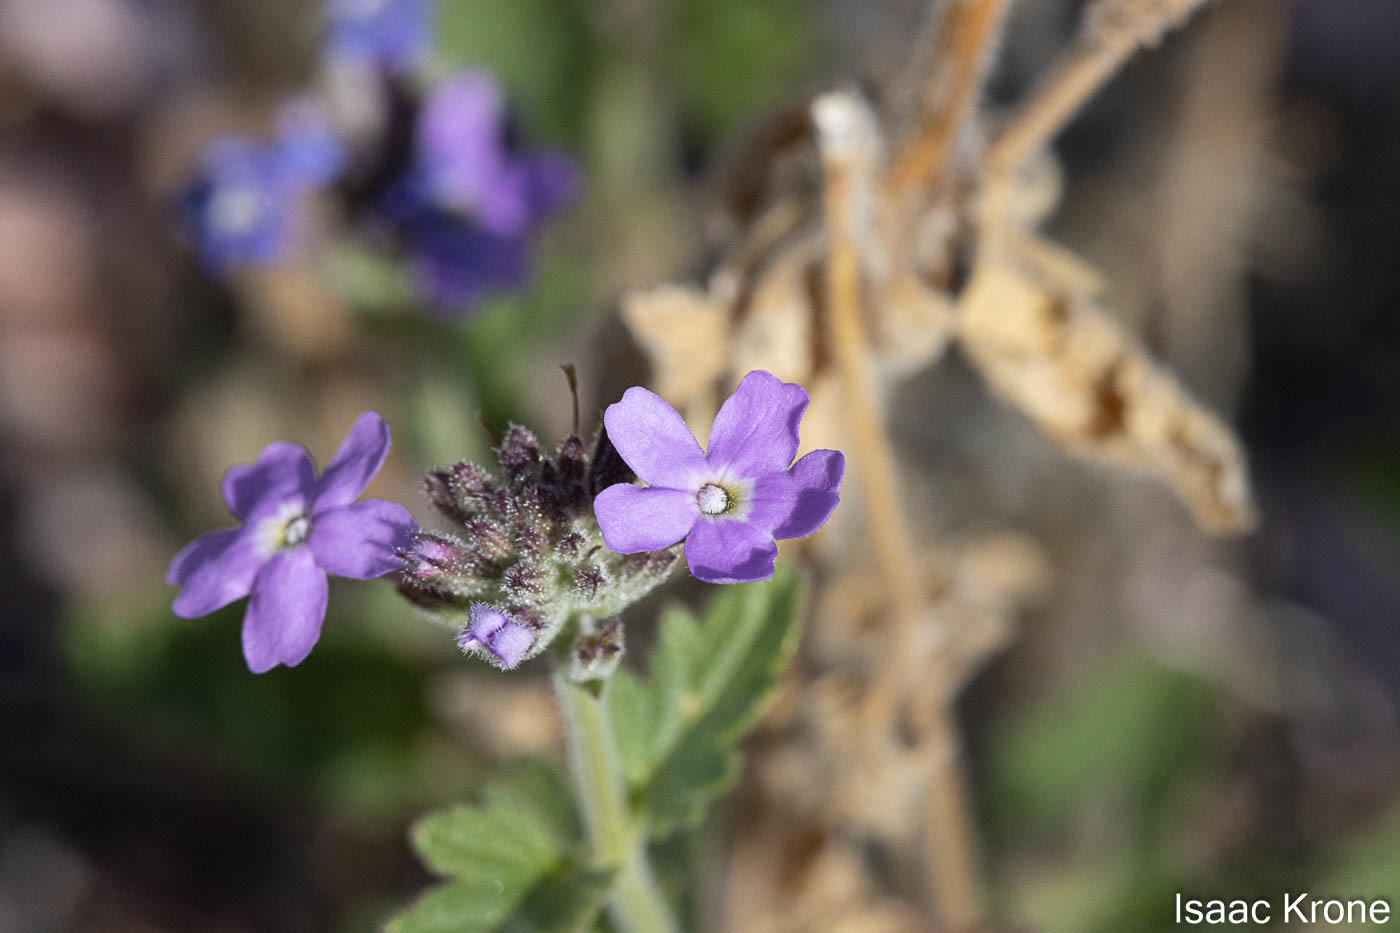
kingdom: Plantae
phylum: Tracheophyta
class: Magnoliopsida
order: Lamiales
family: Verbenaceae
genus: Verbena
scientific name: Verbena gooddingii
